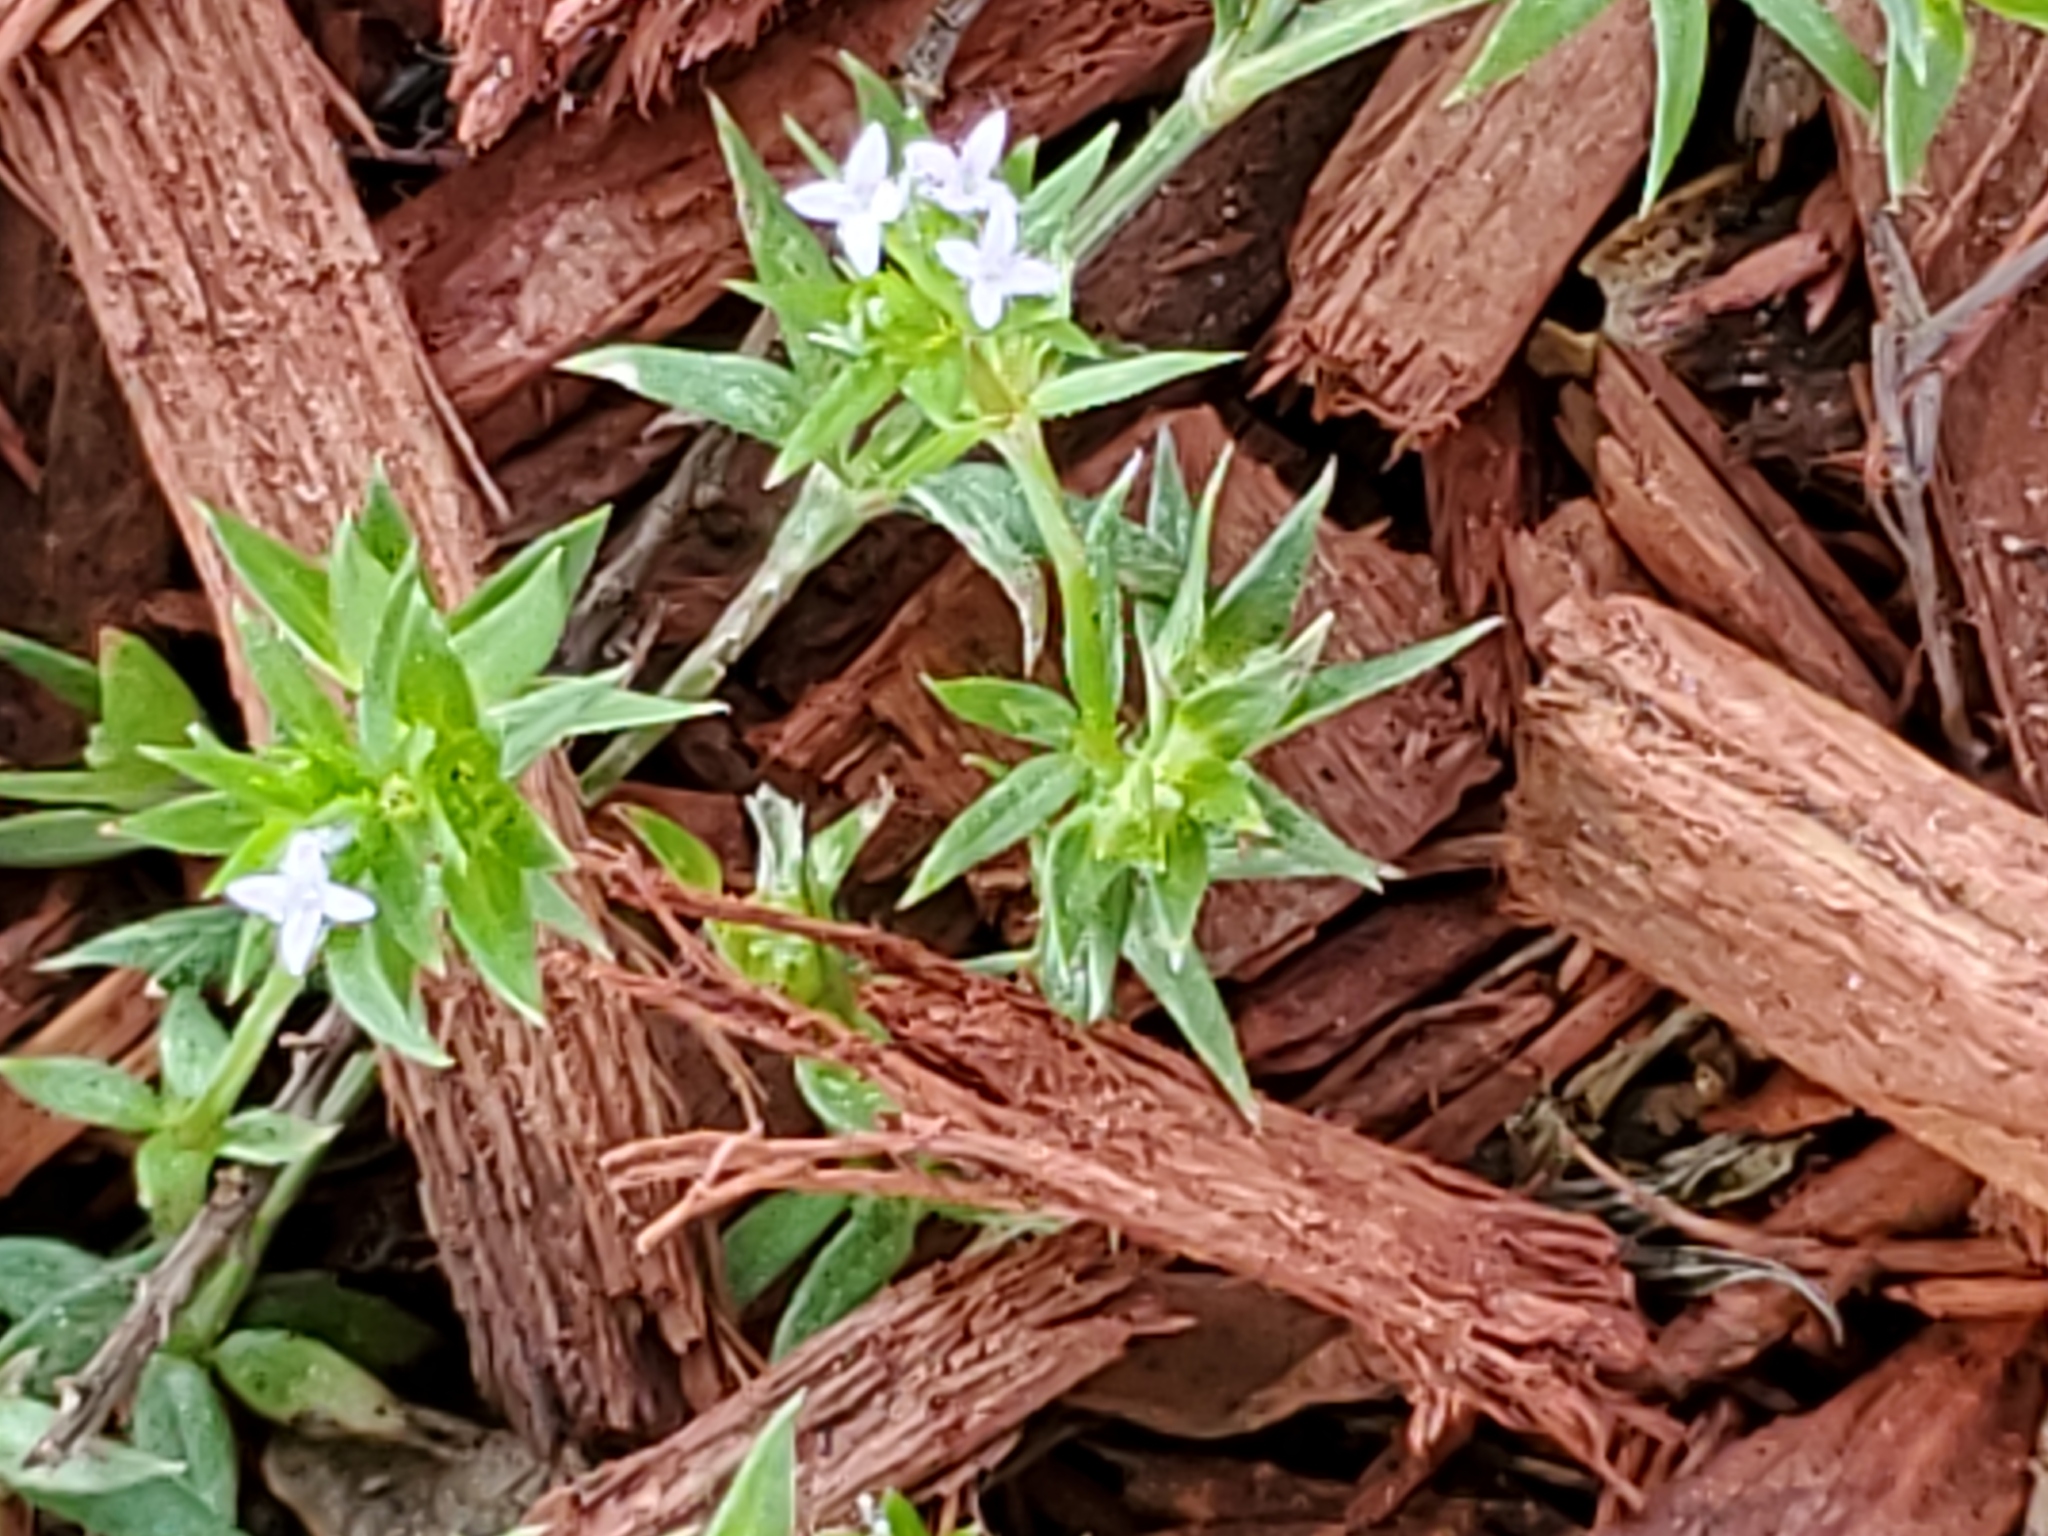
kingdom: Plantae
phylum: Tracheophyta
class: Magnoliopsida
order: Gentianales
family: Rubiaceae
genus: Sherardia
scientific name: Sherardia arvensis
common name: Field madder
